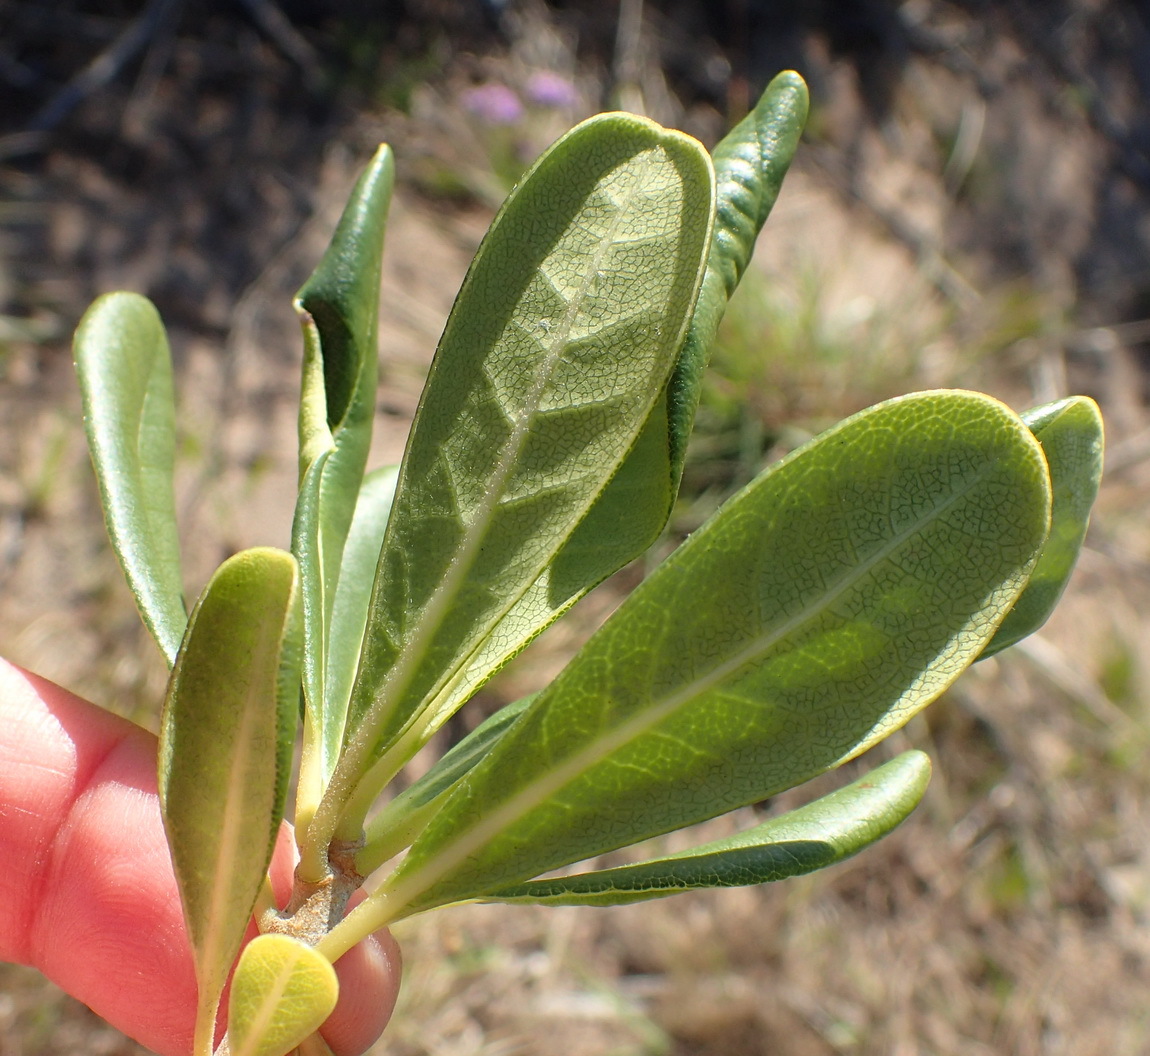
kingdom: Plantae
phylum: Tracheophyta
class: Magnoliopsida
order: Apiales
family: Pittosporaceae
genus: Pittosporum
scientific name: Pittosporum viridiflorum
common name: Cape cheesewood
